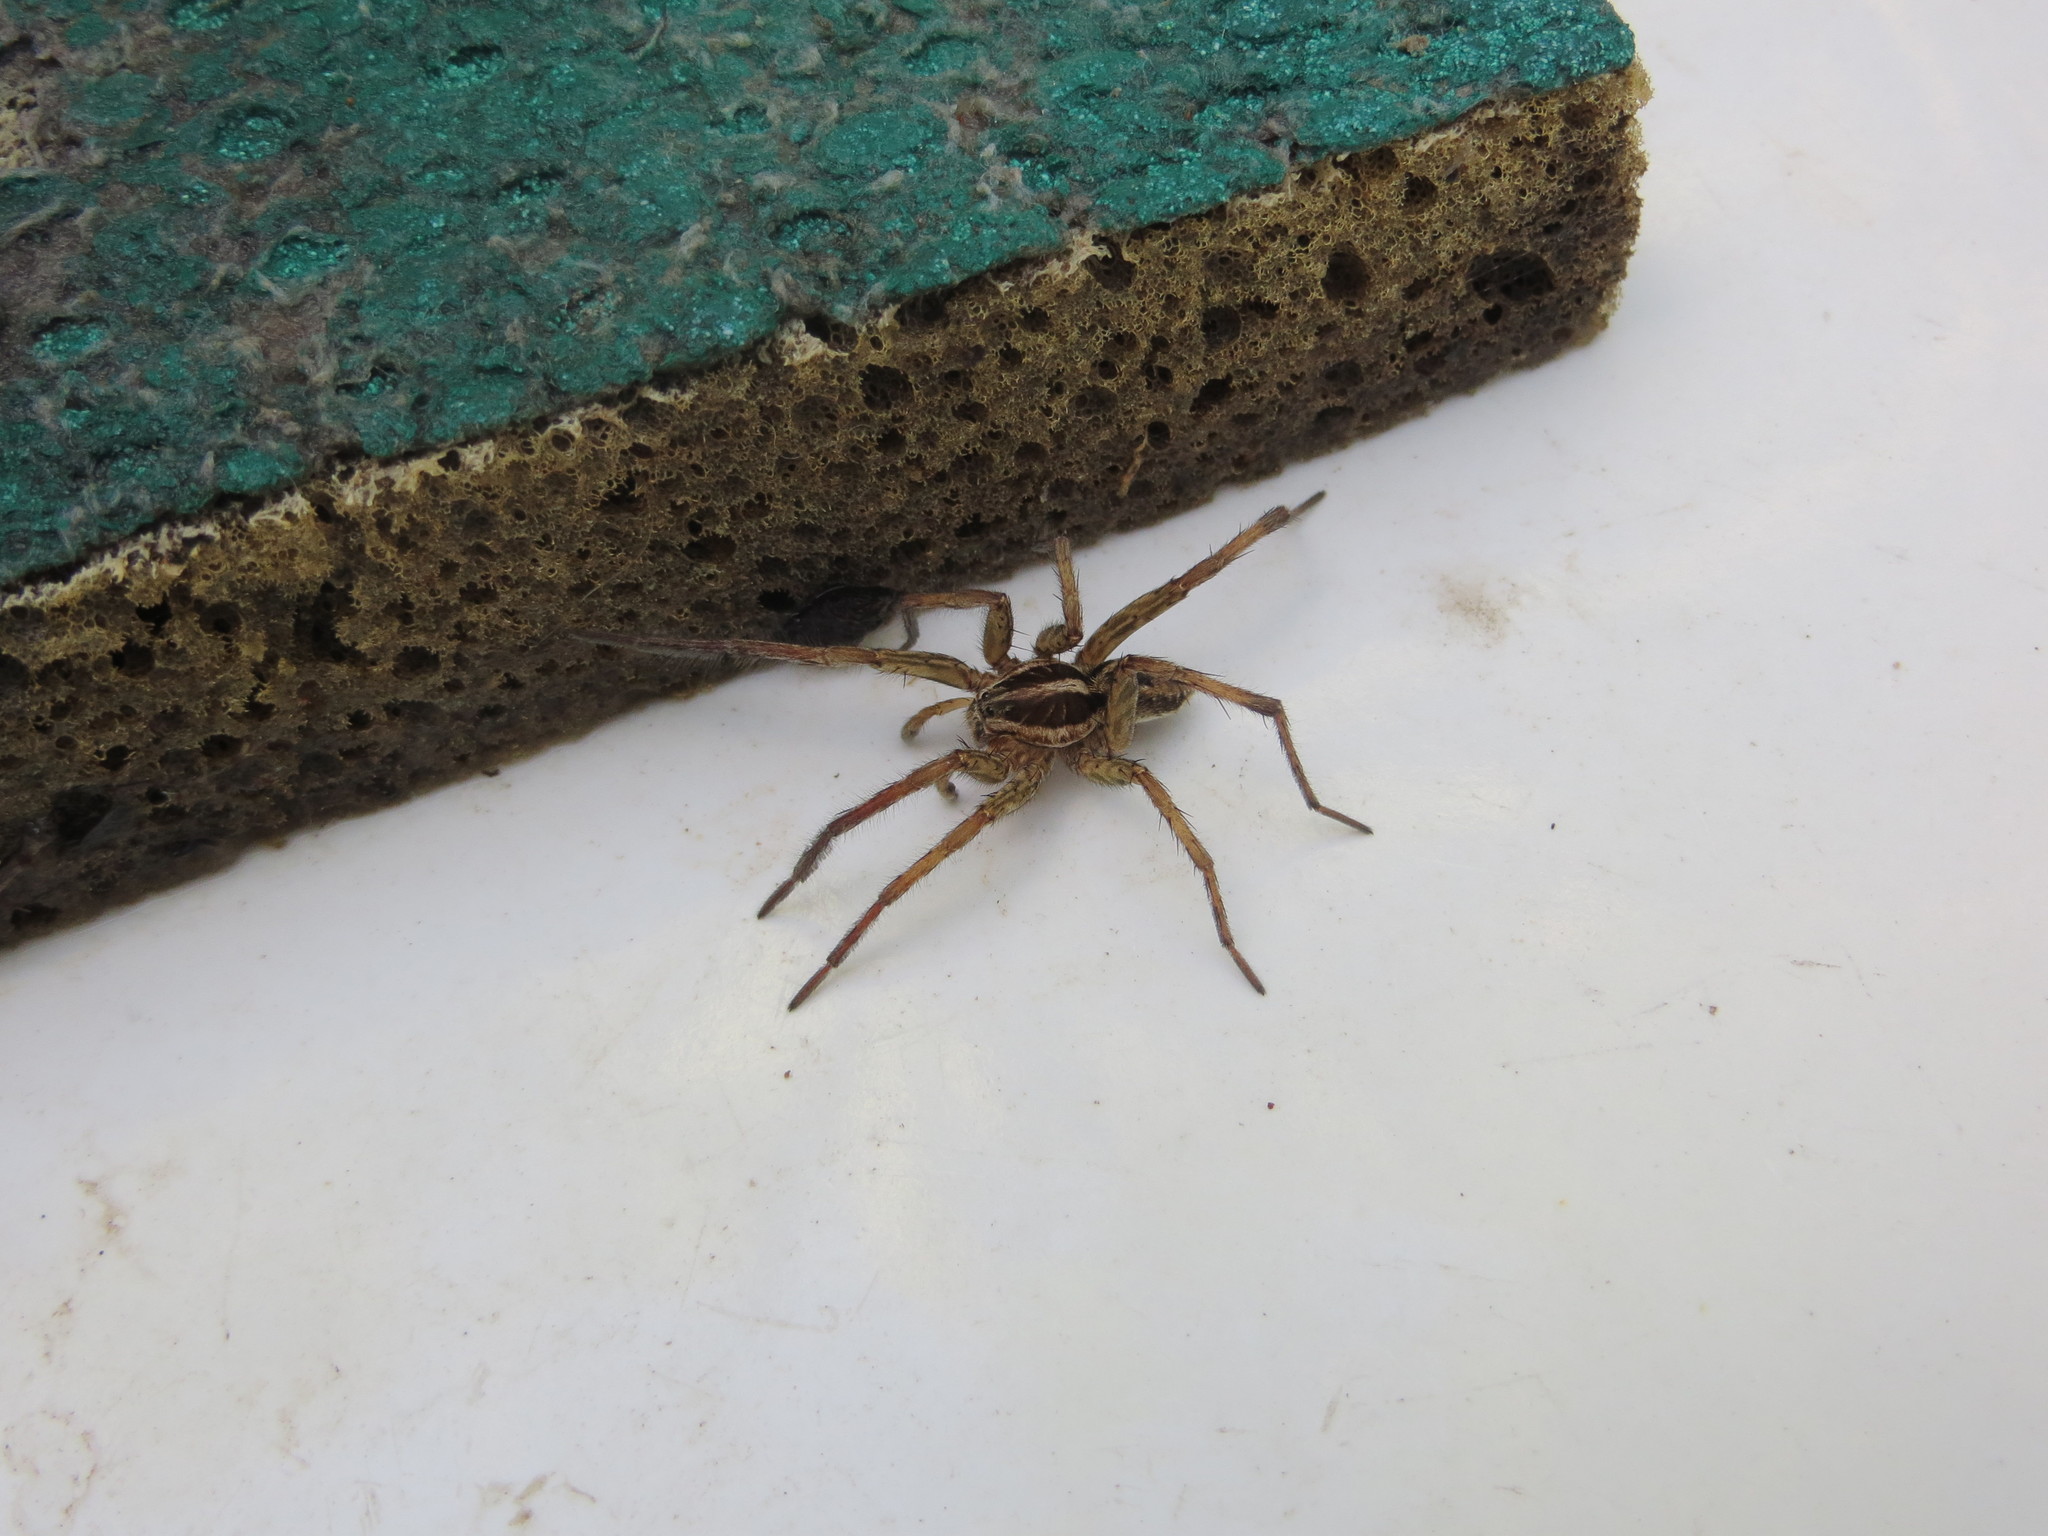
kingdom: Animalia
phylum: Arthropoda
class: Arachnida
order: Araneae
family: Lycosidae
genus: Hogna
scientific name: Hogna radiata
